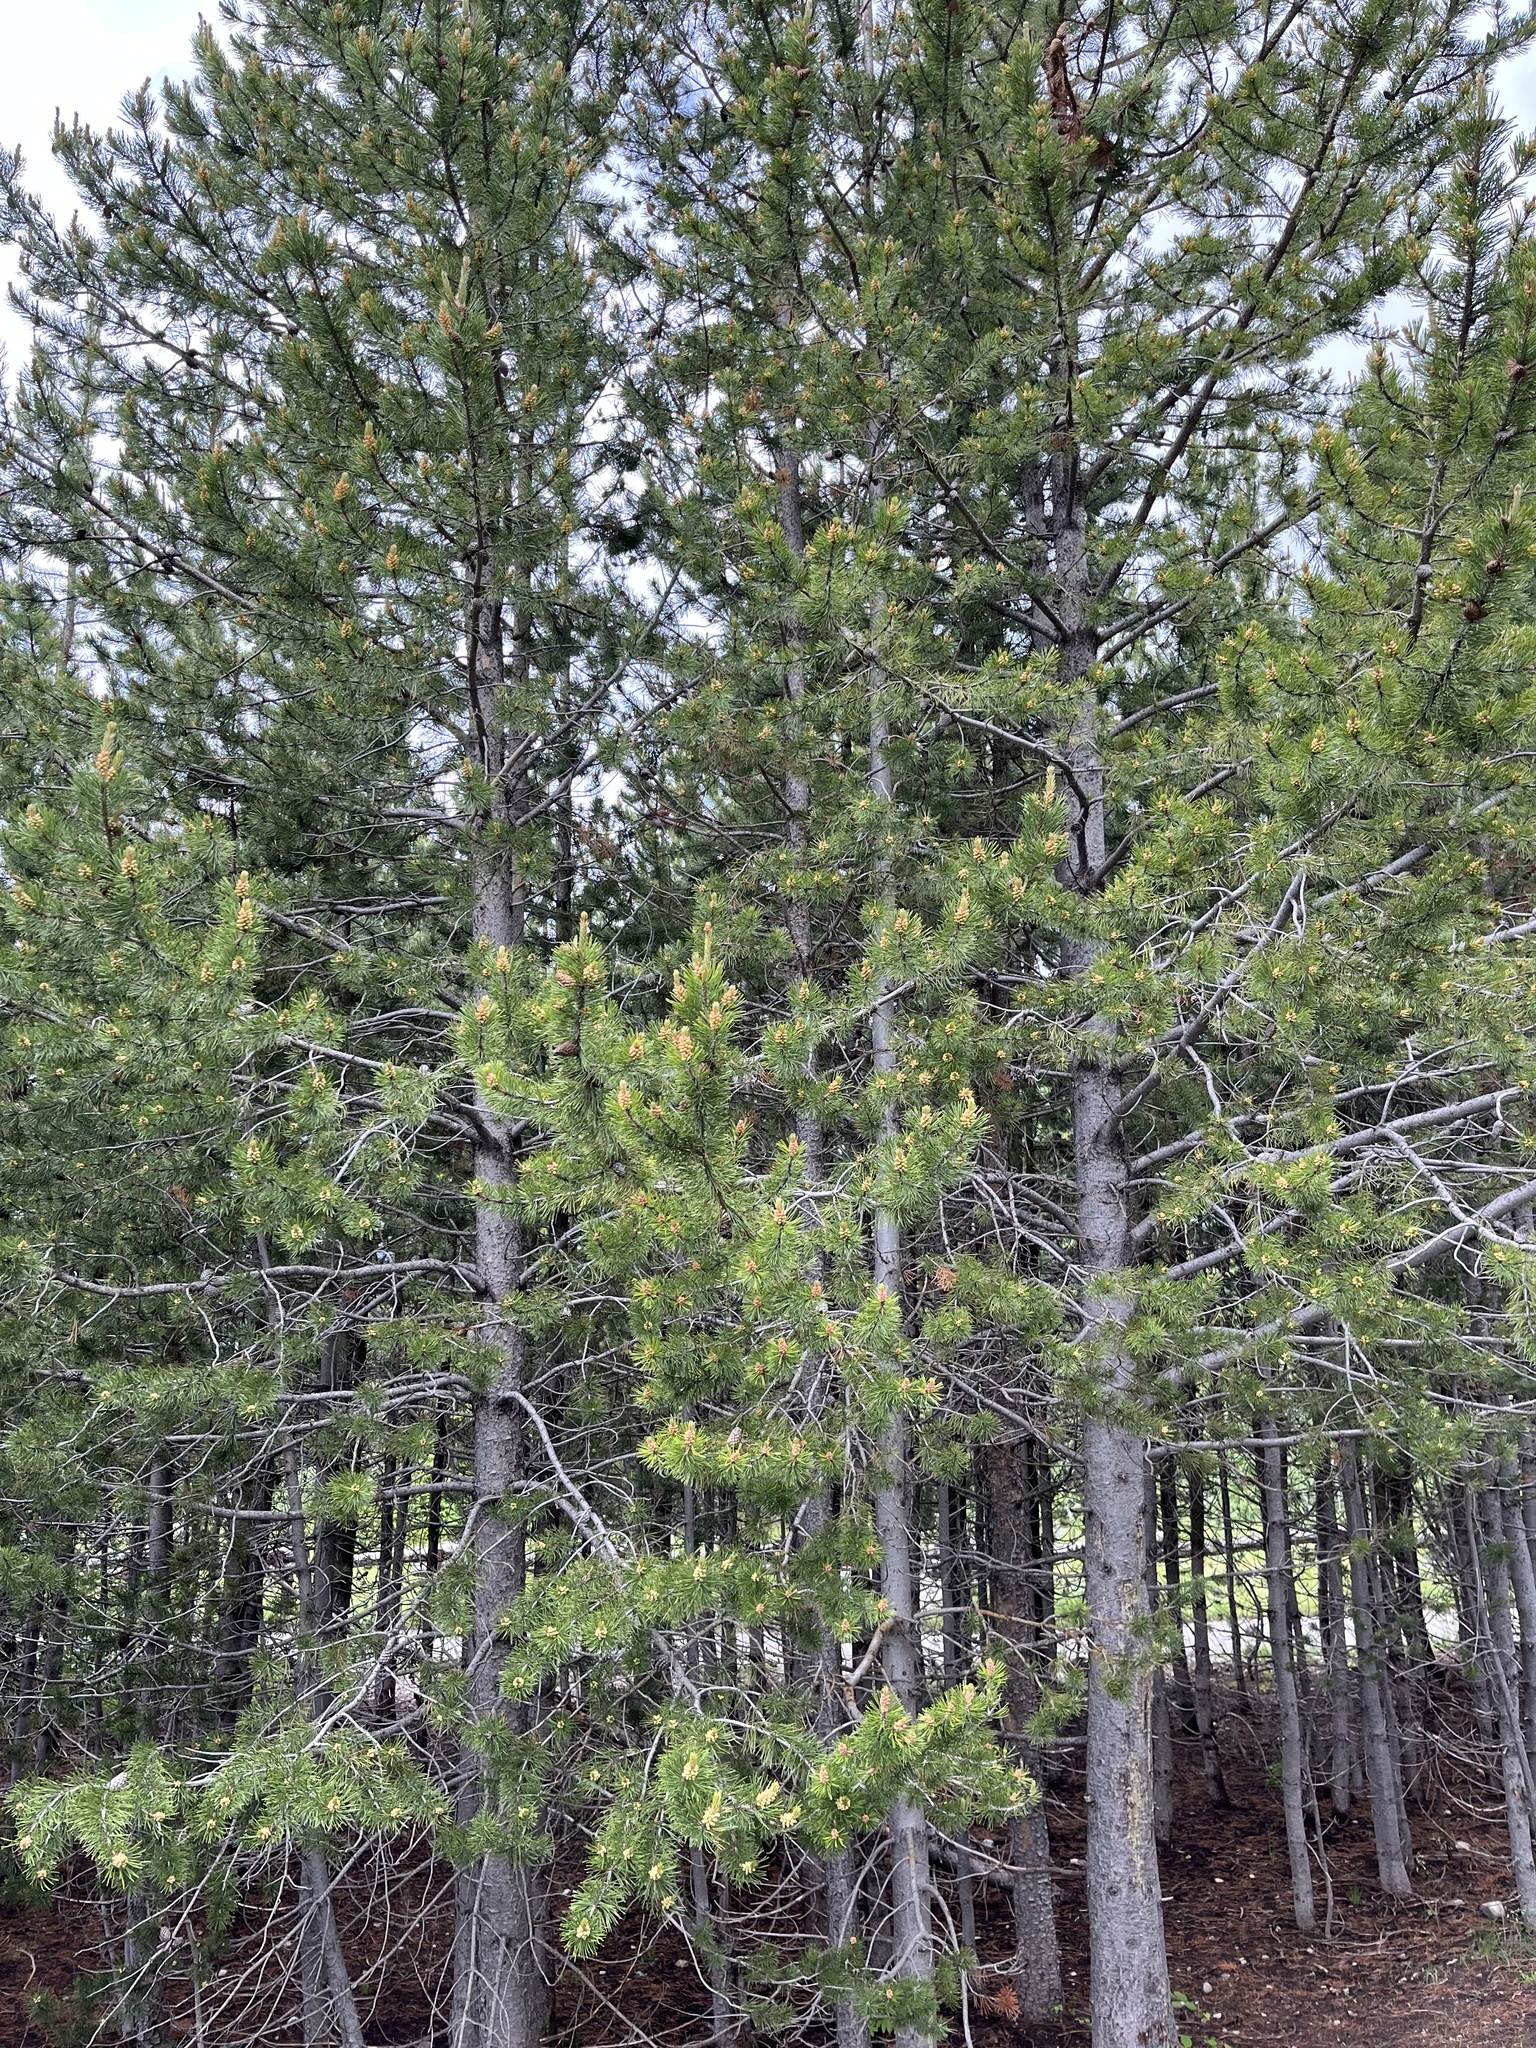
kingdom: Plantae
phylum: Tracheophyta
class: Pinopsida
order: Pinales
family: Pinaceae
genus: Pinus
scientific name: Pinus contorta
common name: Lodgepole pine
